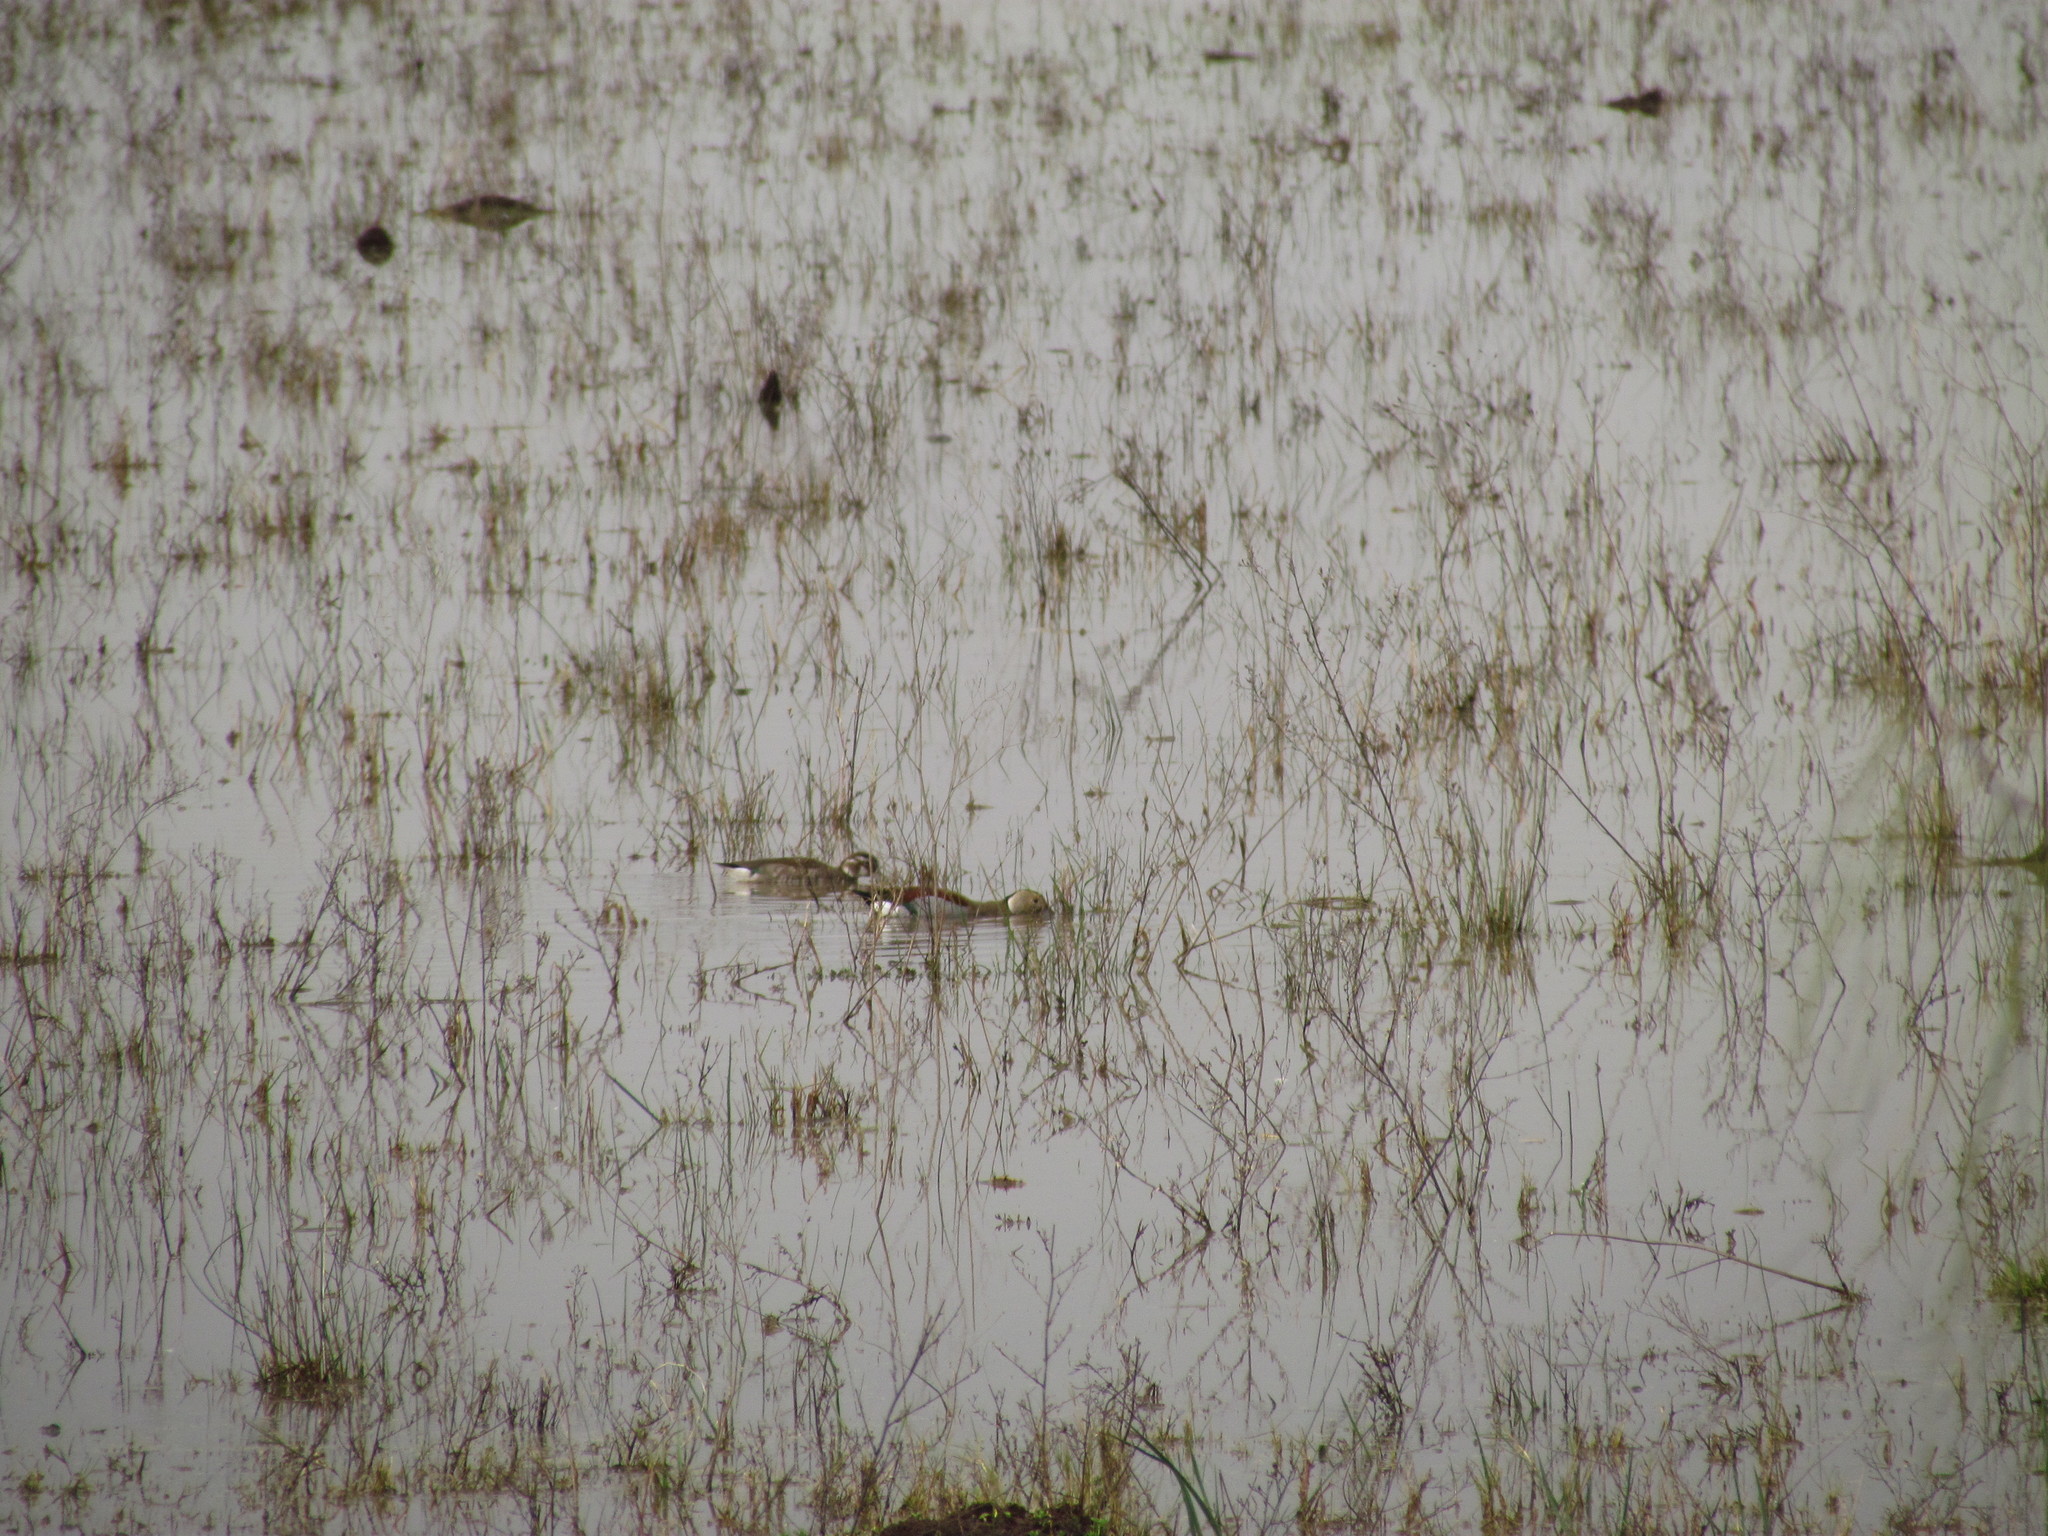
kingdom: Animalia
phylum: Chordata
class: Aves
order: Anseriformes
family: Anatidae
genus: Callonetta
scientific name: Callonetta leucophrys
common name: Ringed teal
